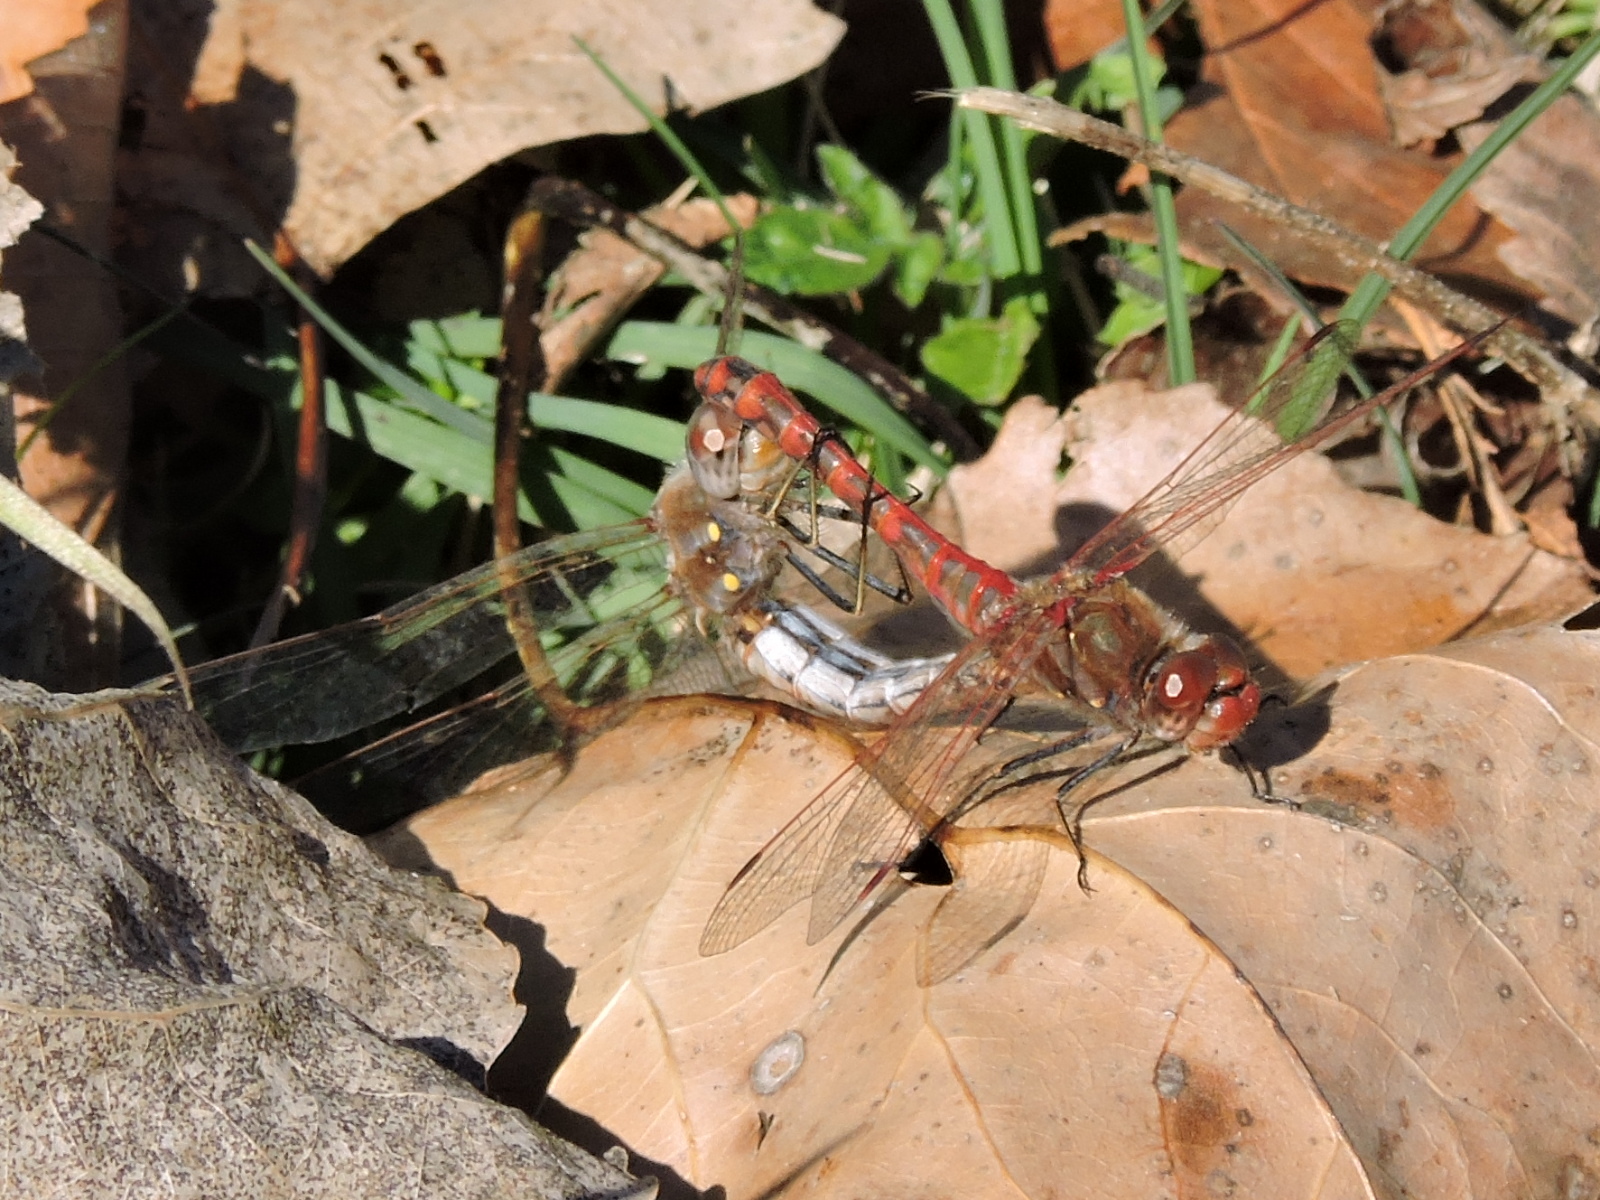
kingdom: Animalia
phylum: Arthropoda
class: Insecta
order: Odonata
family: Libellulidae
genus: Sympetrum
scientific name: Sympetrum corruptum
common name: Variegated meadowhawk
